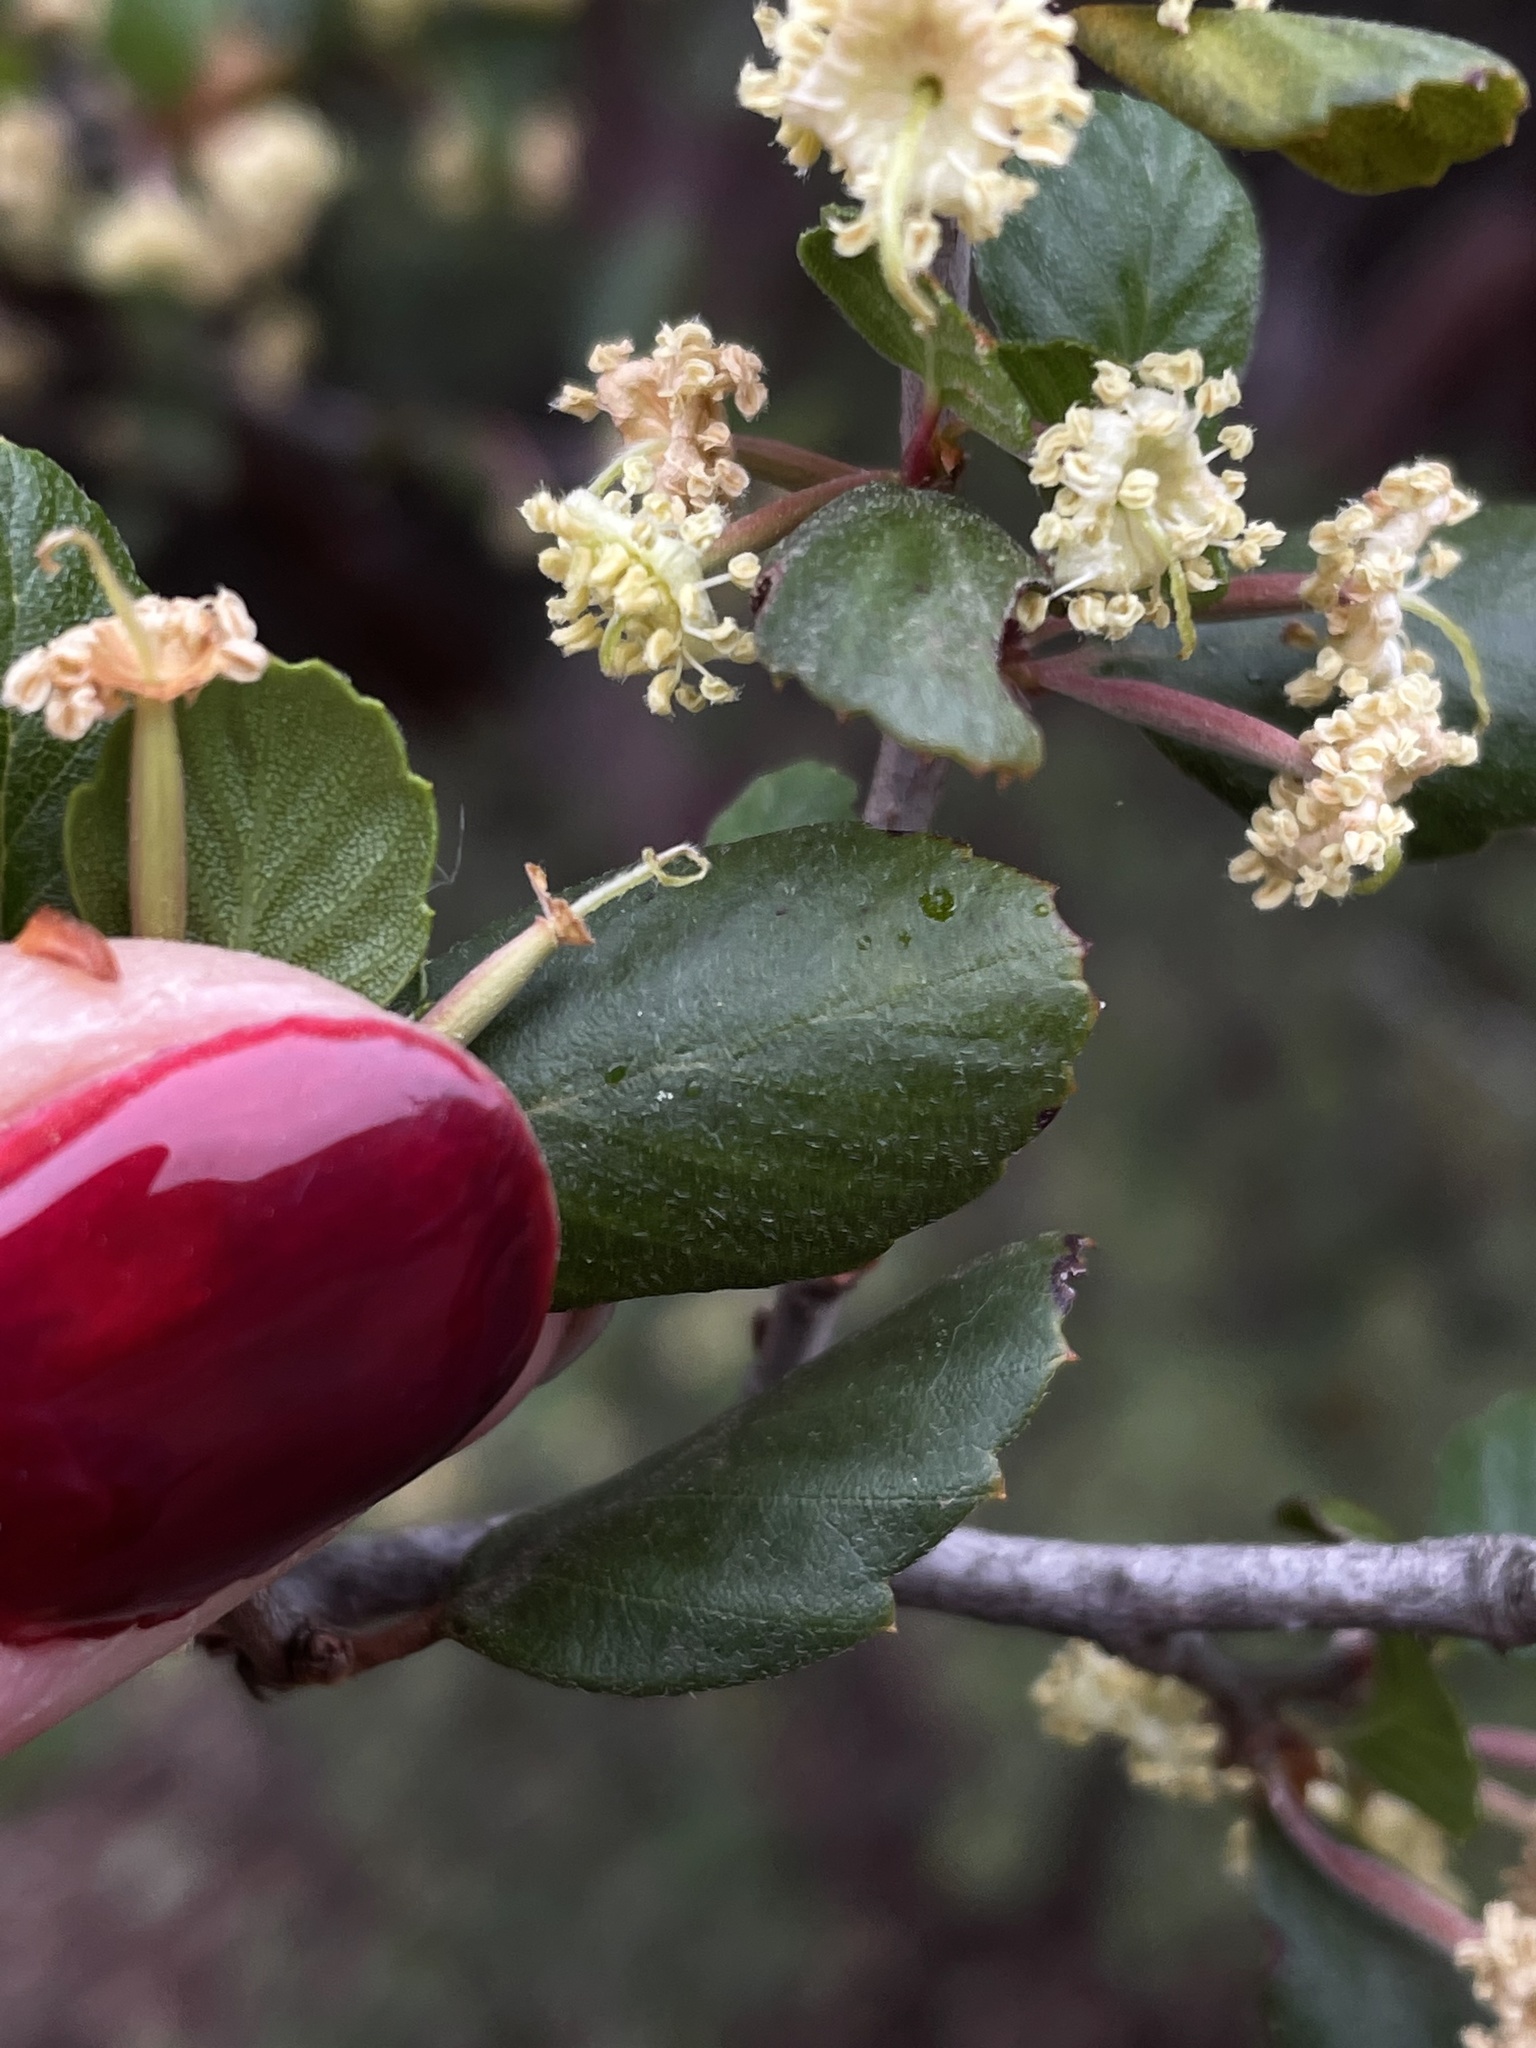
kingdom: Plantae
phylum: Tracheophyta
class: Magnoliopsida
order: Rosales
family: Rosaceae
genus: Cercocarpus
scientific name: Cercocarpus montanus
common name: Alder-leaf cercocarpus
